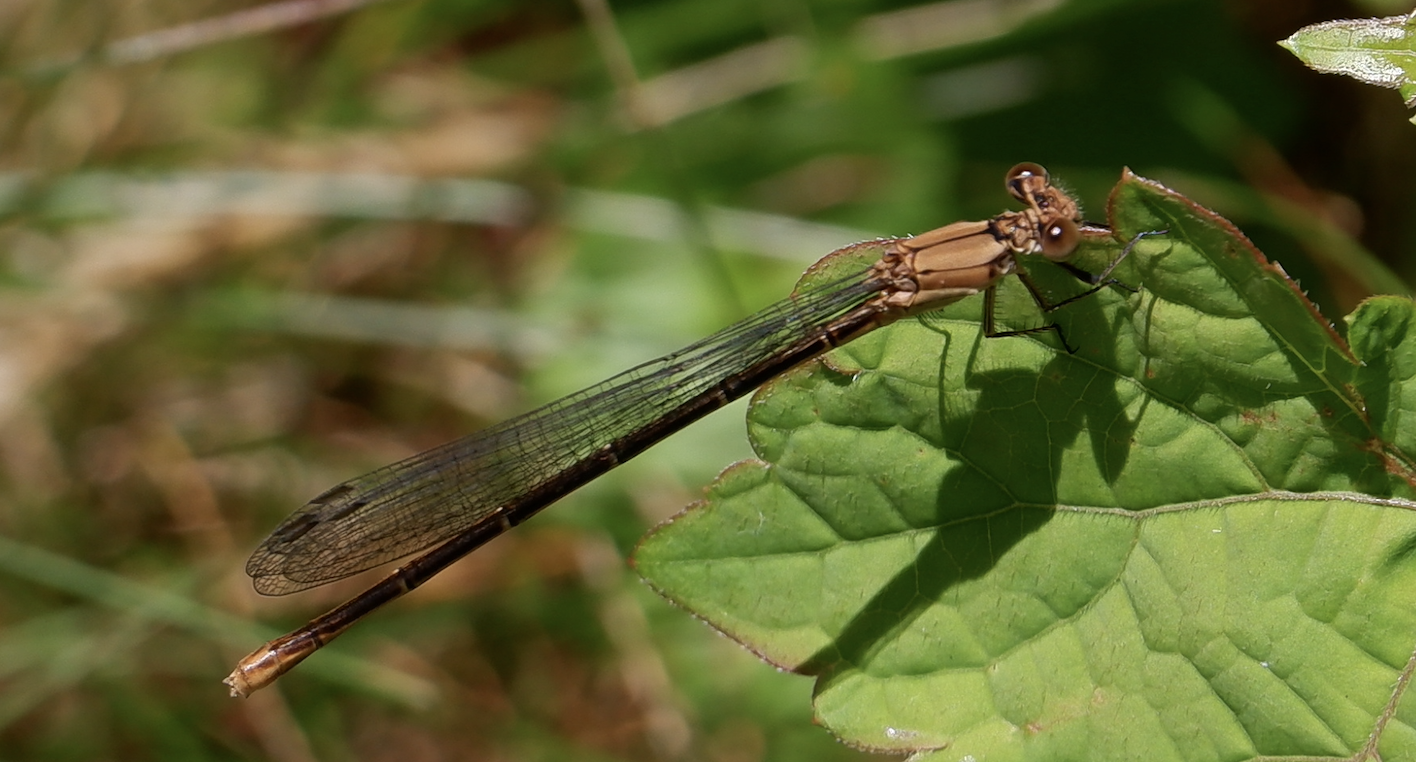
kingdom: Animalia
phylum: Arthropoda
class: Insecta
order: Odonata
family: Coenagrionidae
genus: Argia
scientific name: Argia moesta
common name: Powdered dancer
